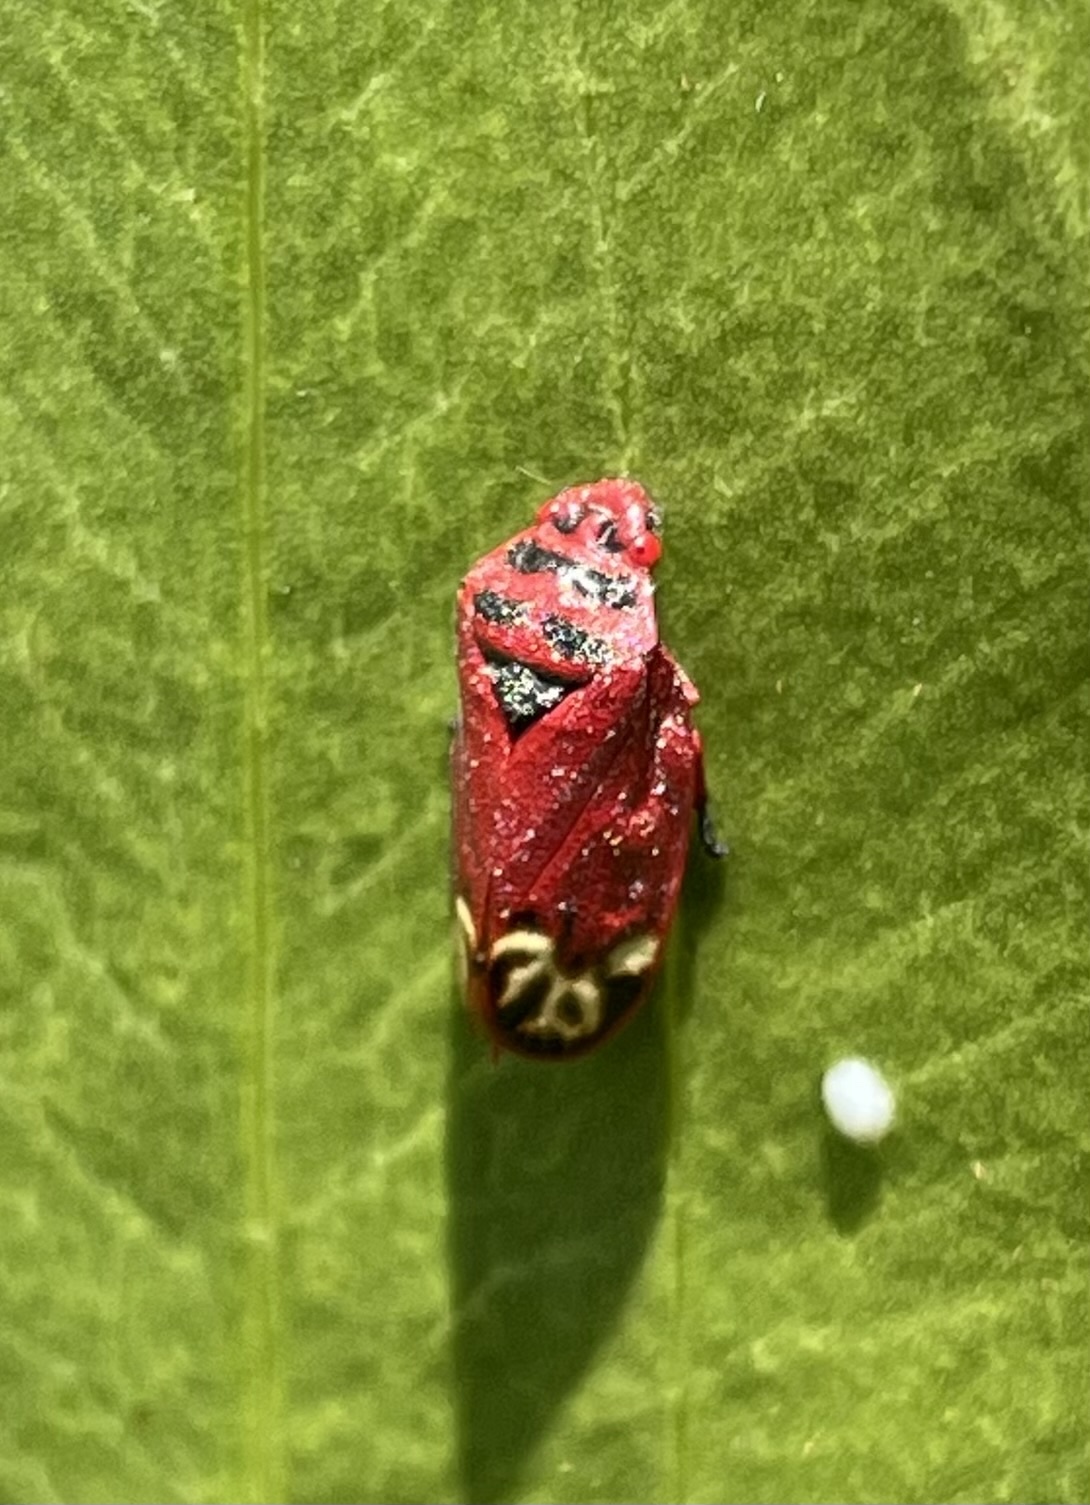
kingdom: Animalia
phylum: Arthropoda
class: Insecta
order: Hemiptera
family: Cercopidae
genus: Locris
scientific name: Locris incarnata
